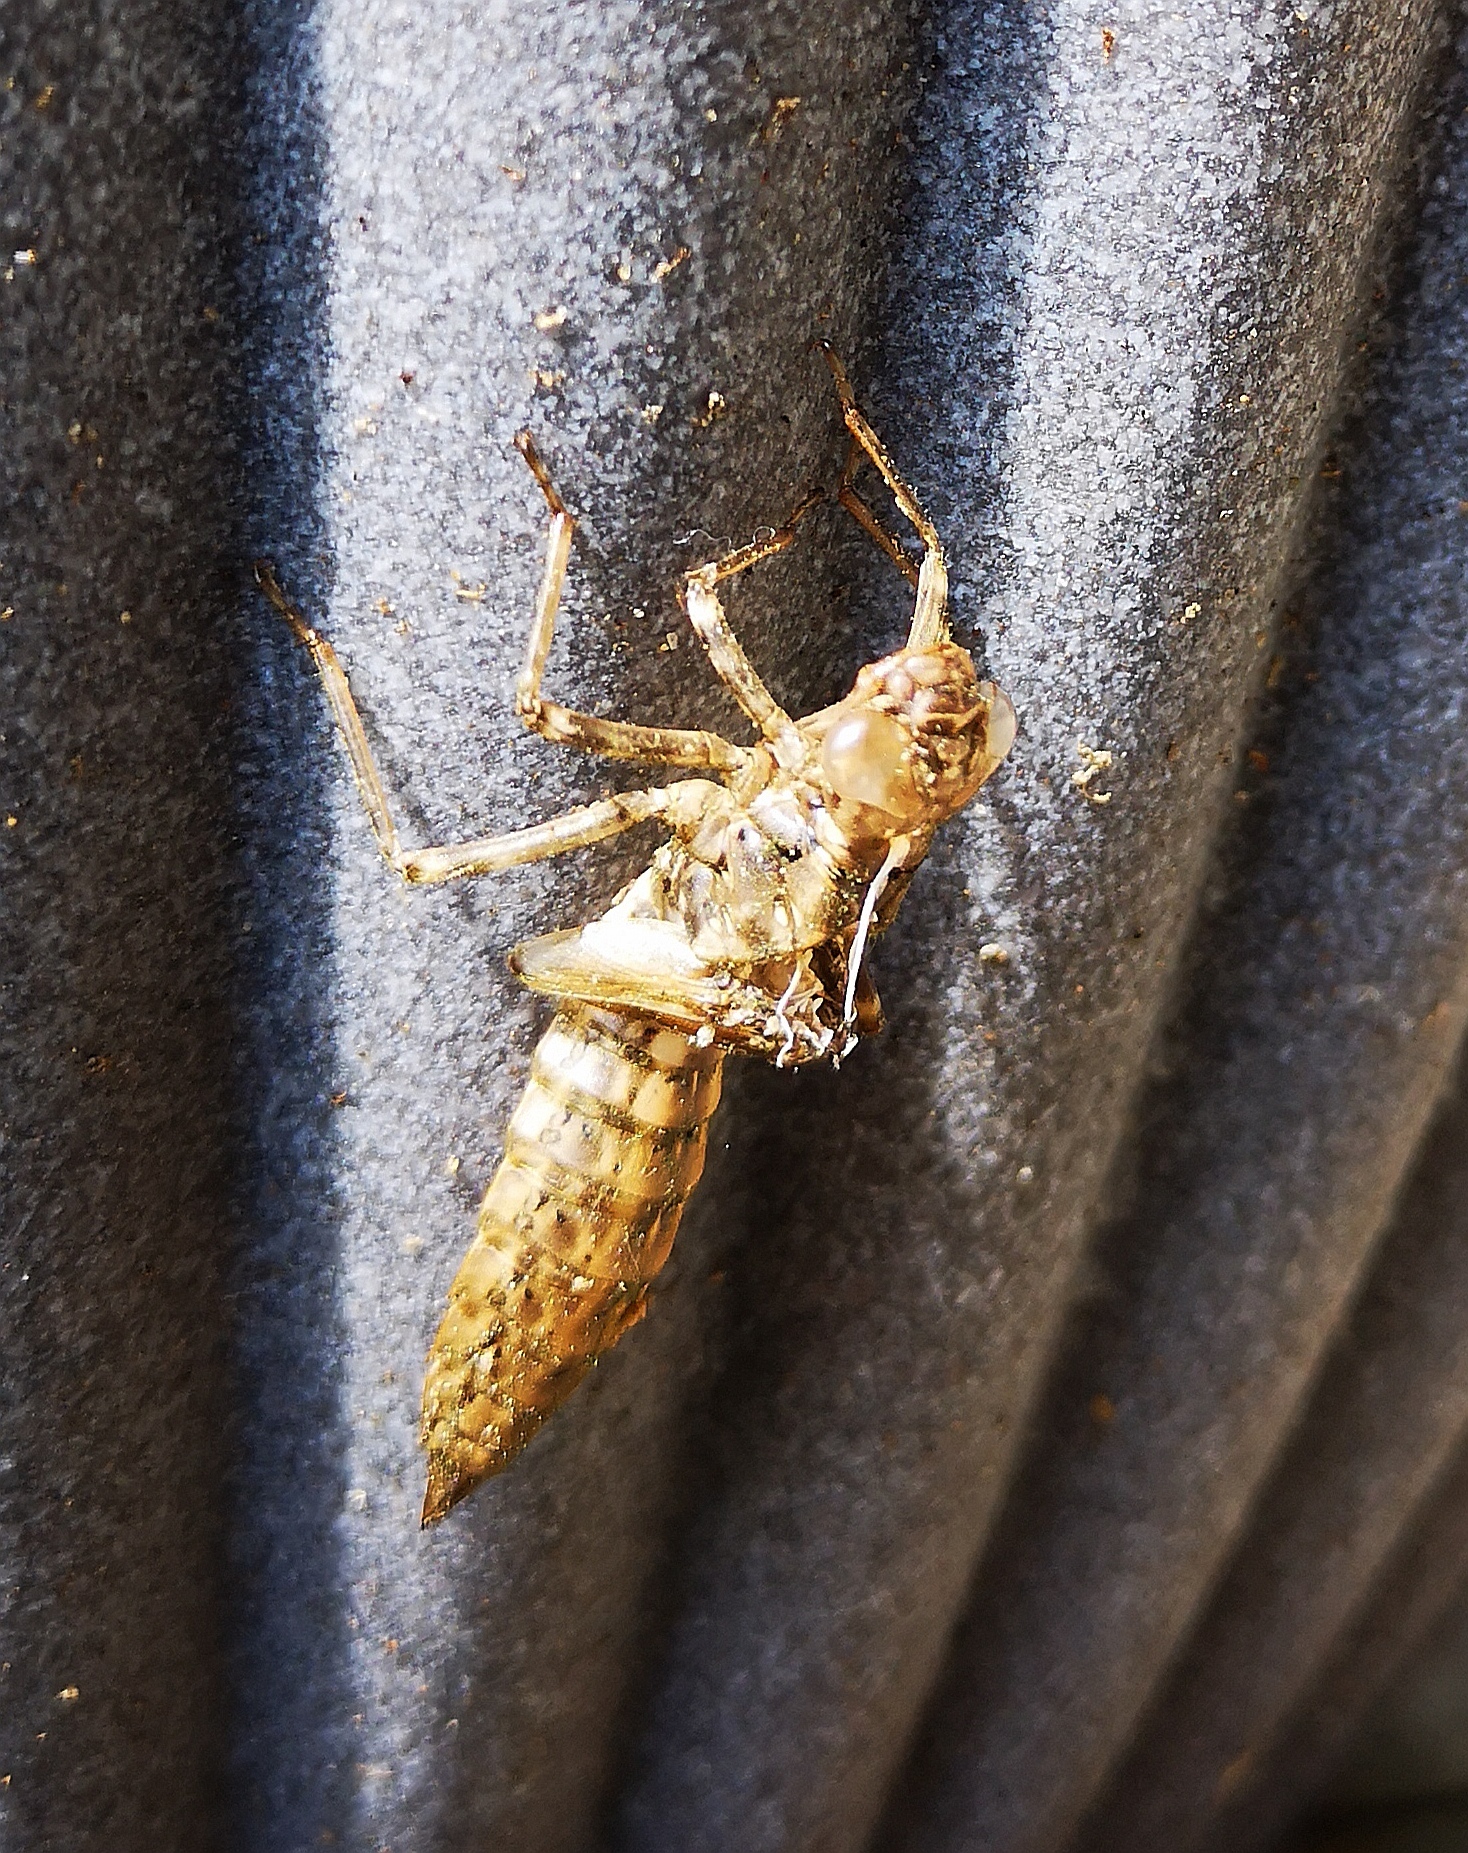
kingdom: Animalia
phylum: Arthropoda
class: Insecta
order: Odonata
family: Aeshnidae
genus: Aeshna
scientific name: Aeshna cyanea
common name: Southern hawker
